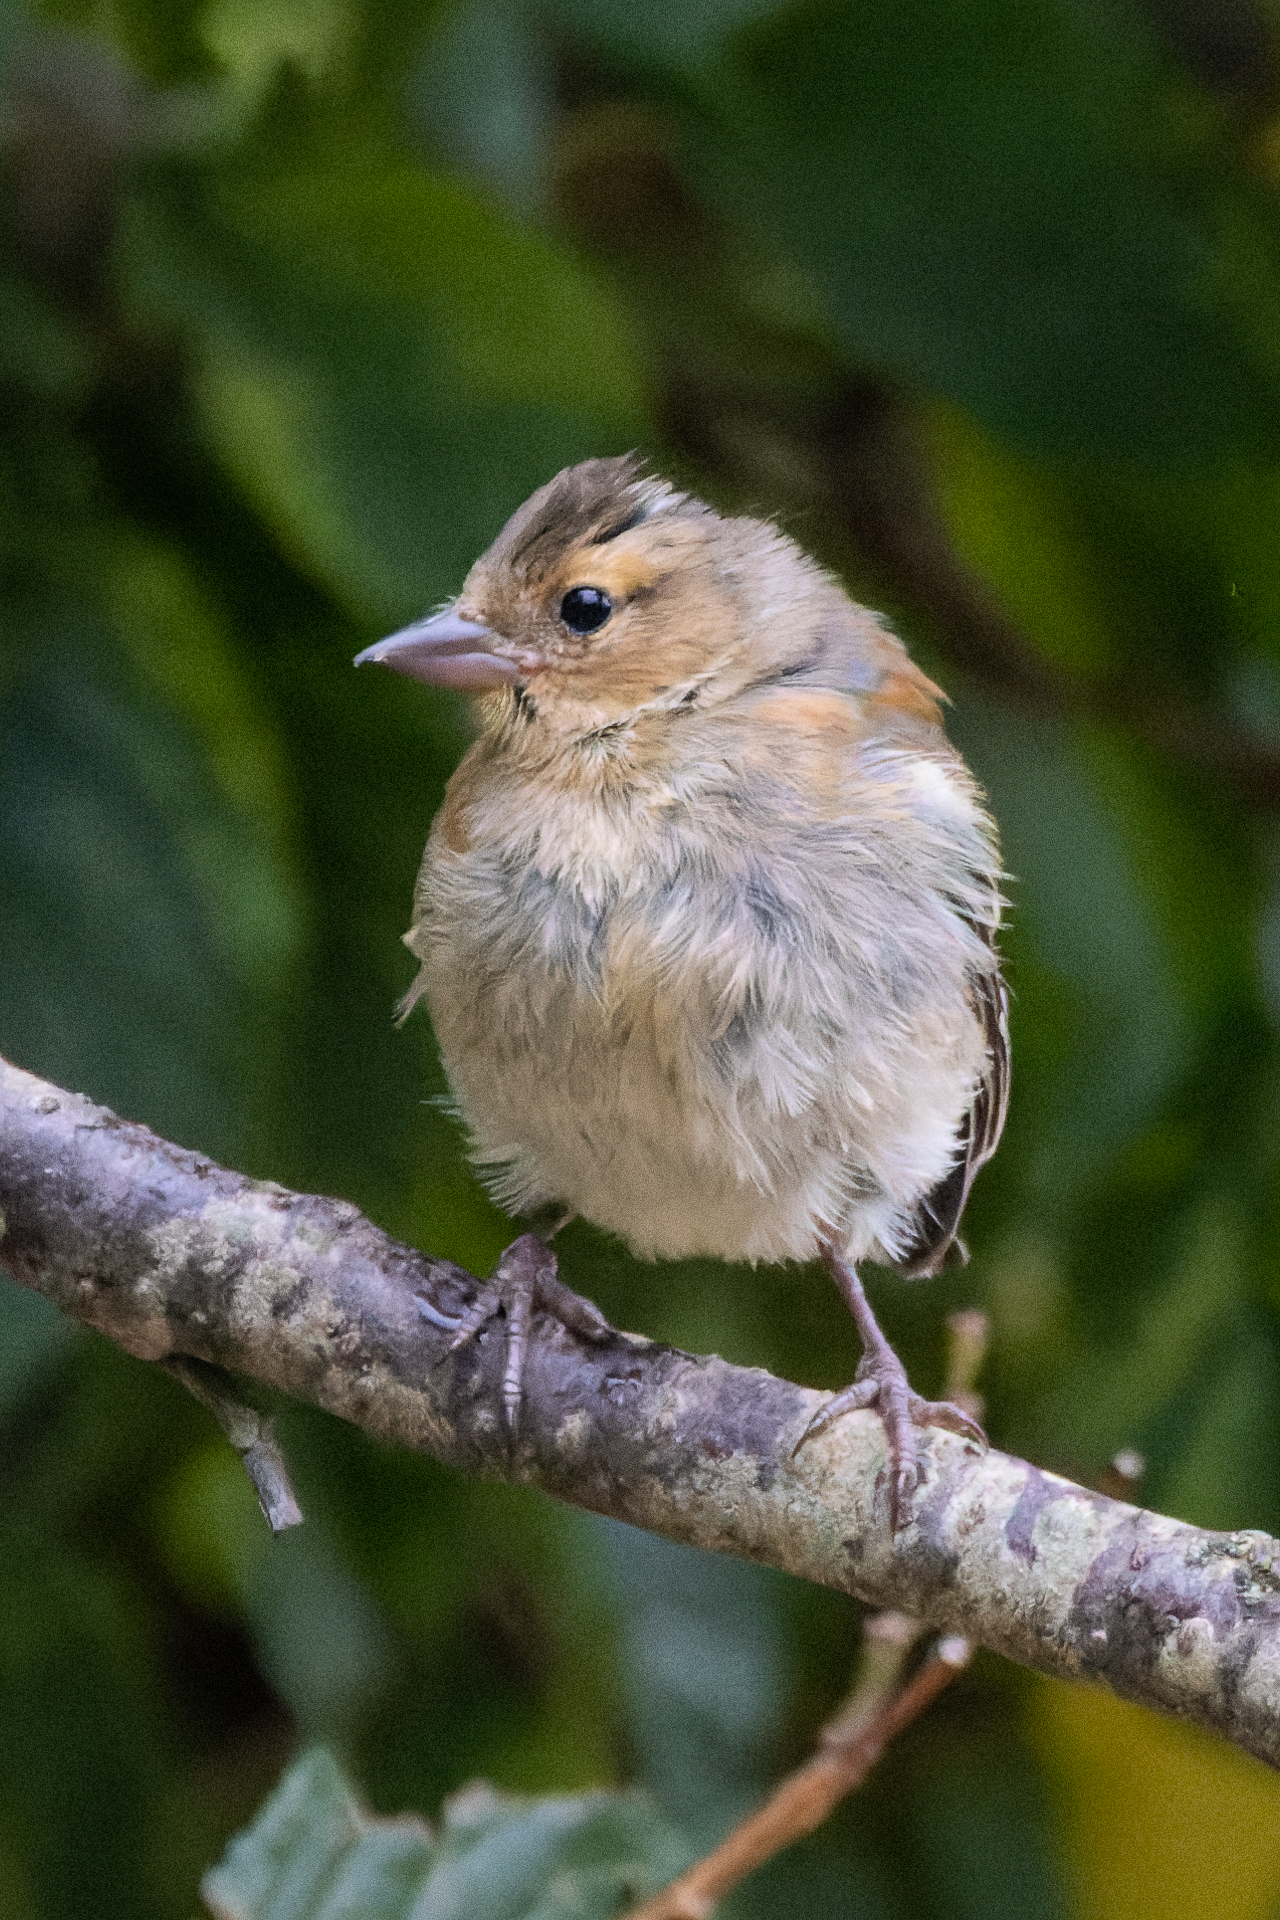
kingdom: Animalia
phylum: Chordata
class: Aves
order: Passeriformes
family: Fringillidae
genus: Fringilla
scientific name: Fringilla coelebs
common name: Common chaffinch
